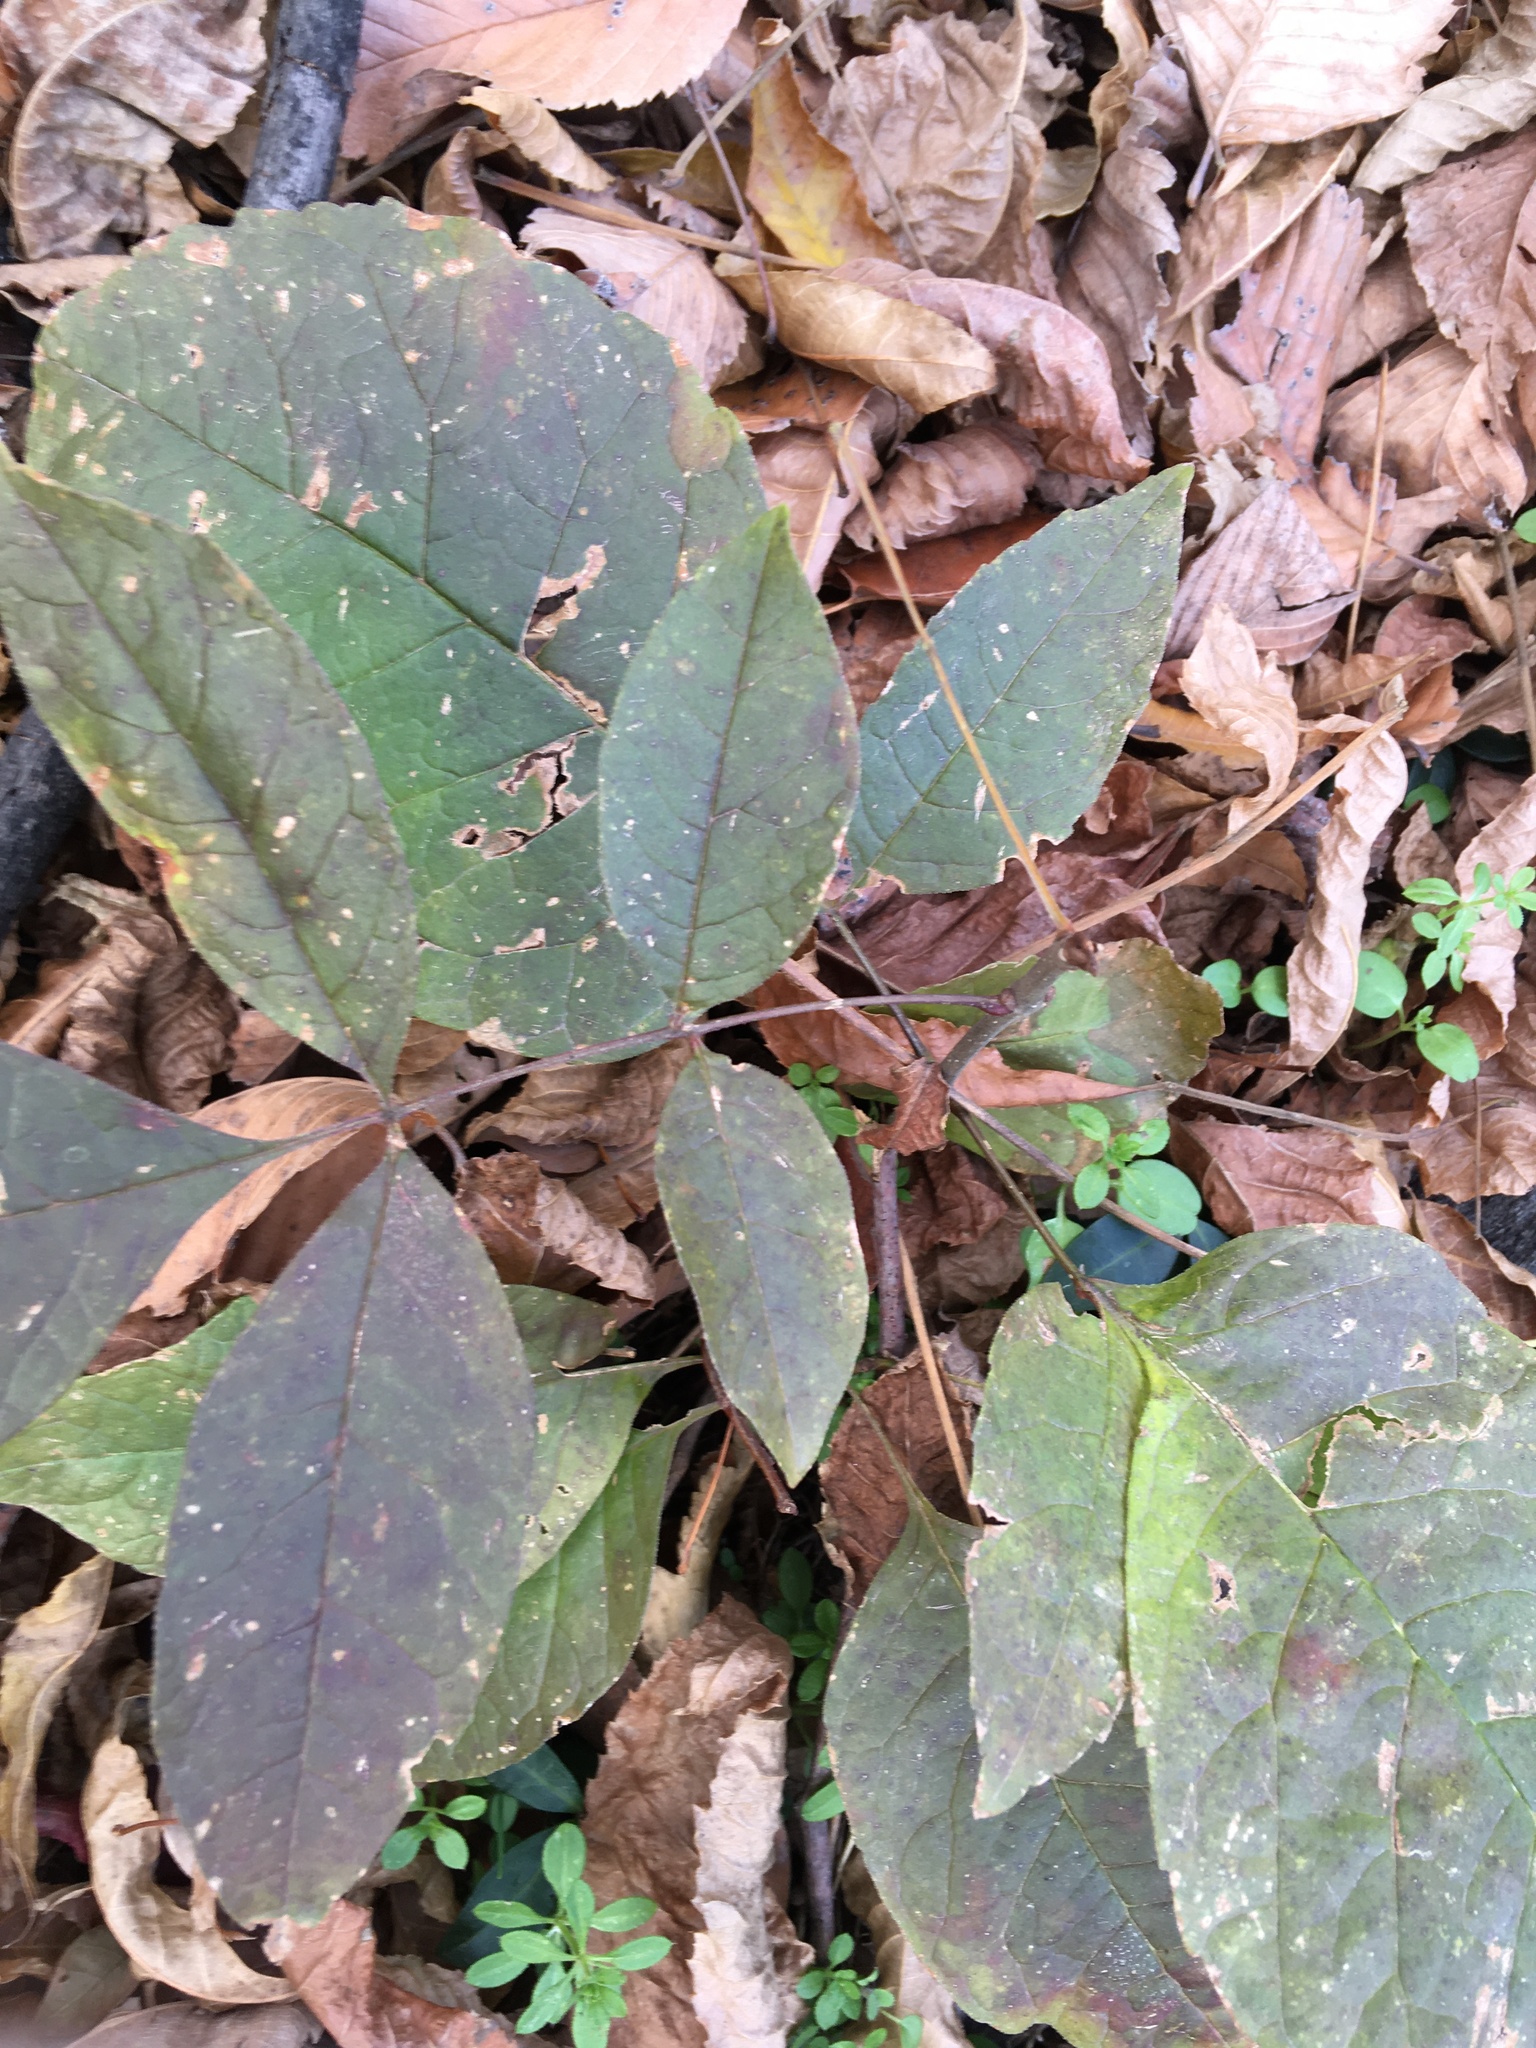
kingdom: Plantae
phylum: Tracheophyta
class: Magnoliopsida
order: Lamiales
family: Oleaceae
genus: Fraxinus
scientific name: Fraxinus pennsylvanica
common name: Green ash
